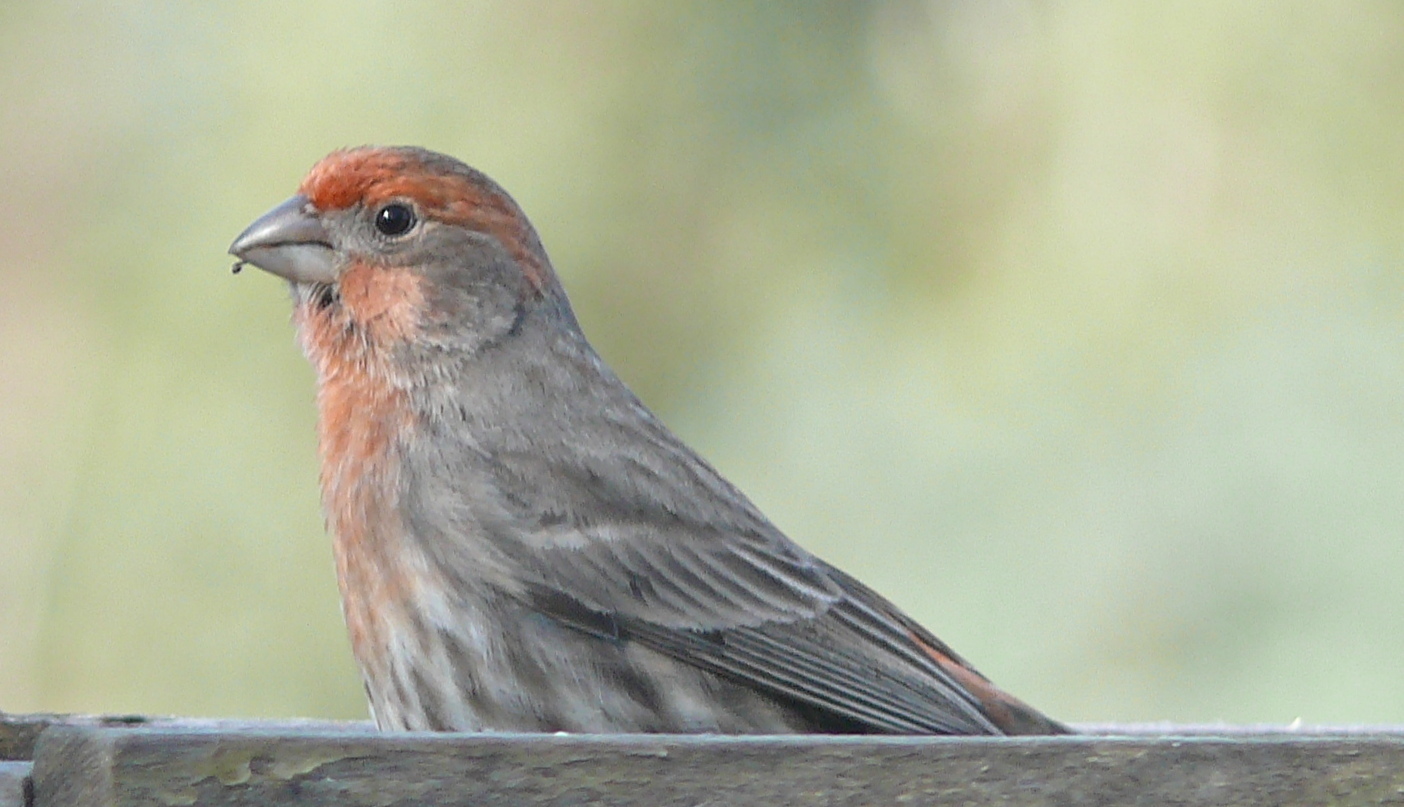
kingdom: Animalia
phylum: Chordata
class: Aves
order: Passeriformes
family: Fringillidae
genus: Haemorhous
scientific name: Haemorhous mexicanus
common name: House finch
